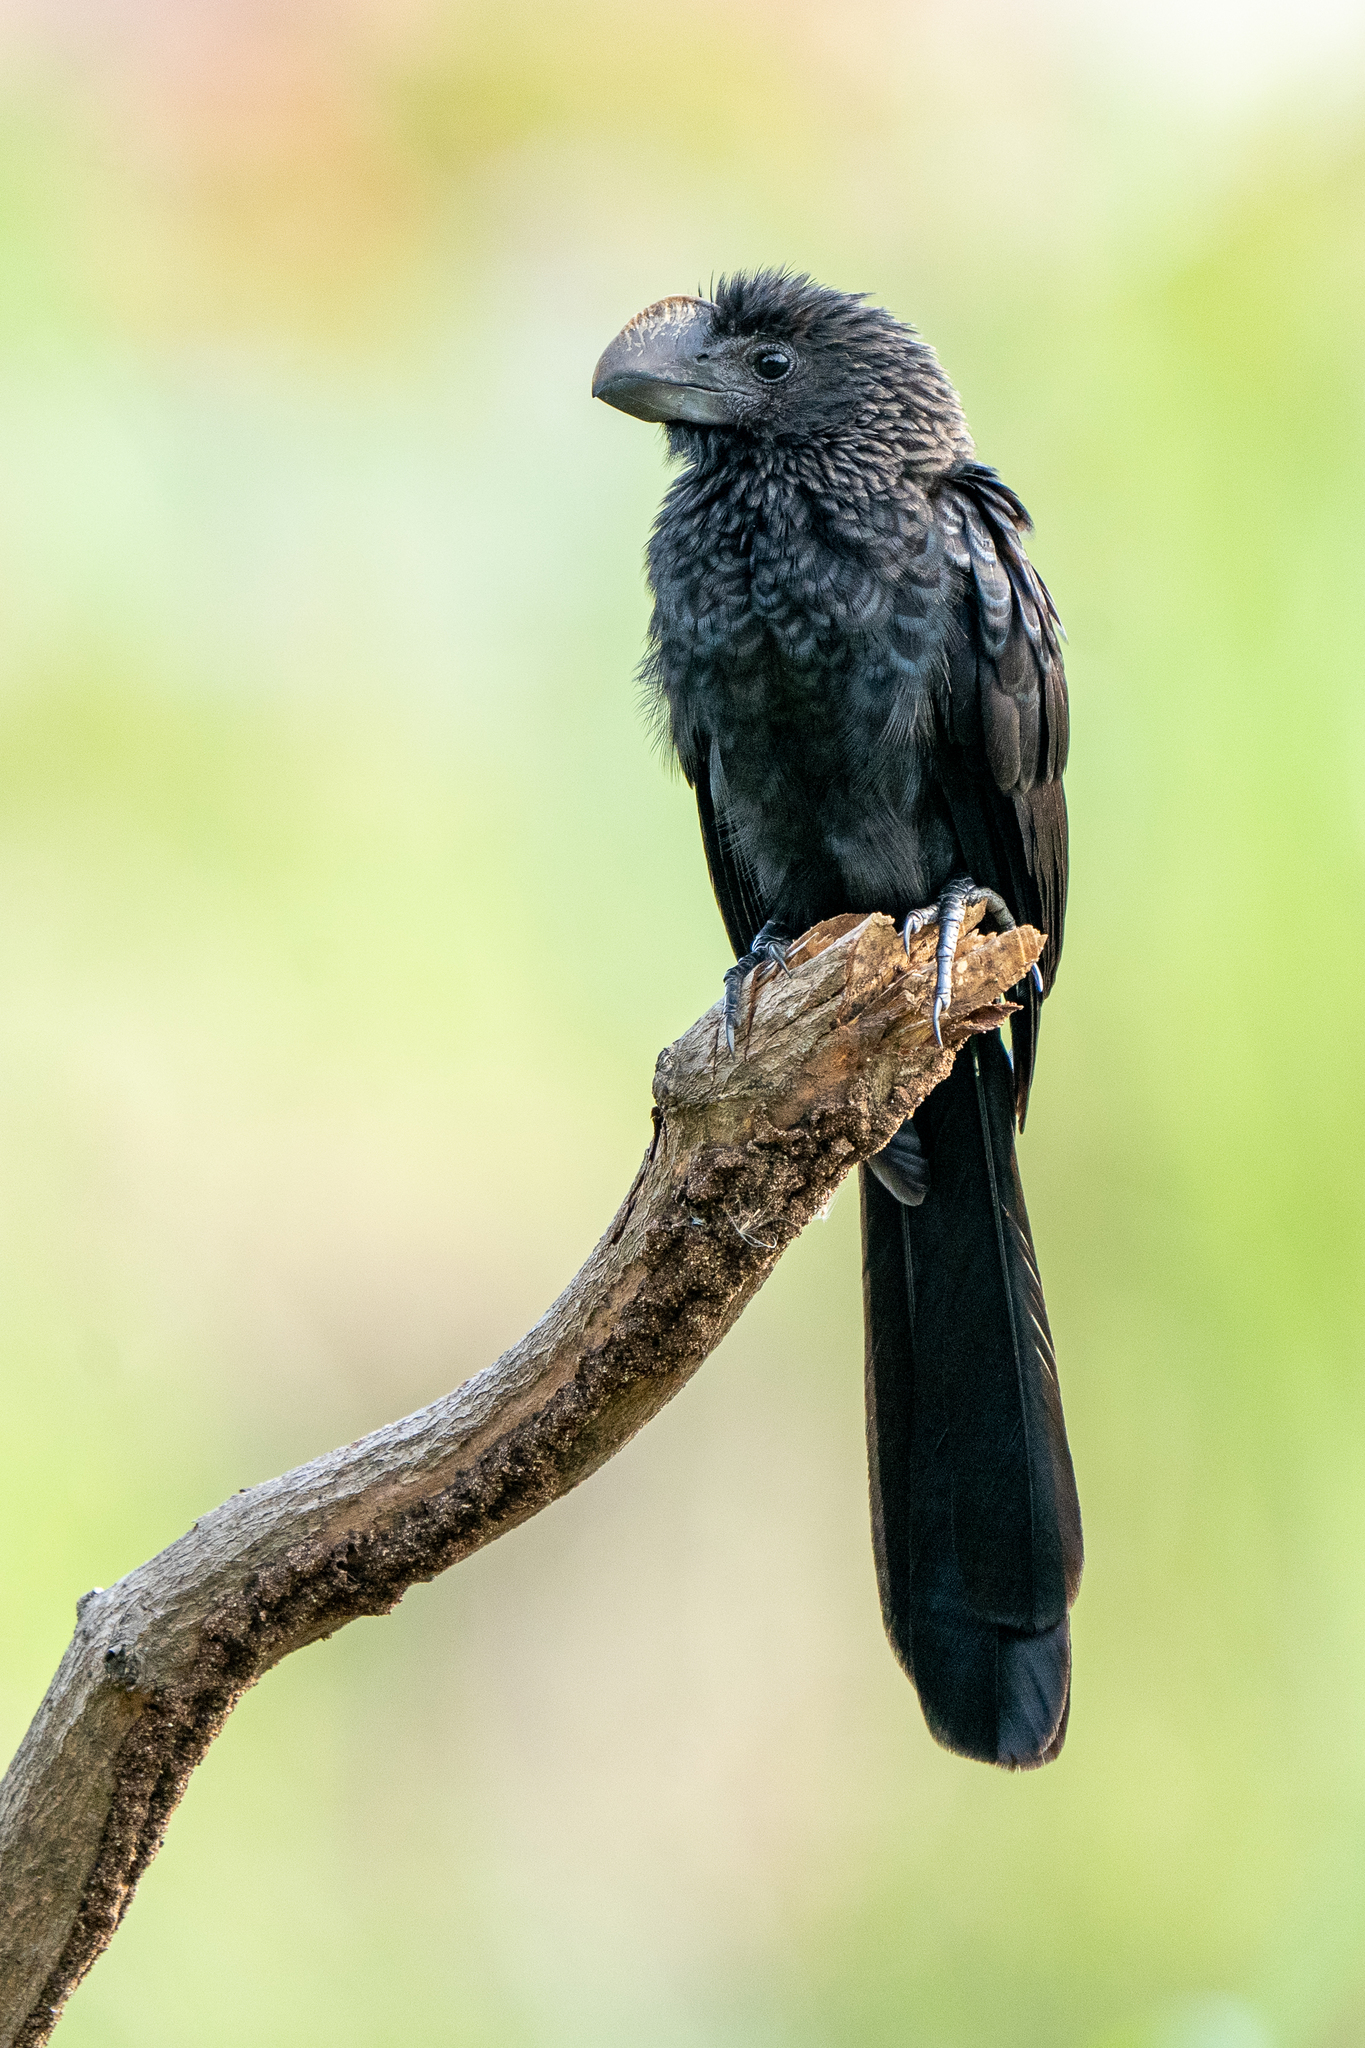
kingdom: Animalia
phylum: Chordata
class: Aves
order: Cuculiformes
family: Cuculidae
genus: Crotophaga
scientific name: Crotophaga ani
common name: Smooth-billed ani
